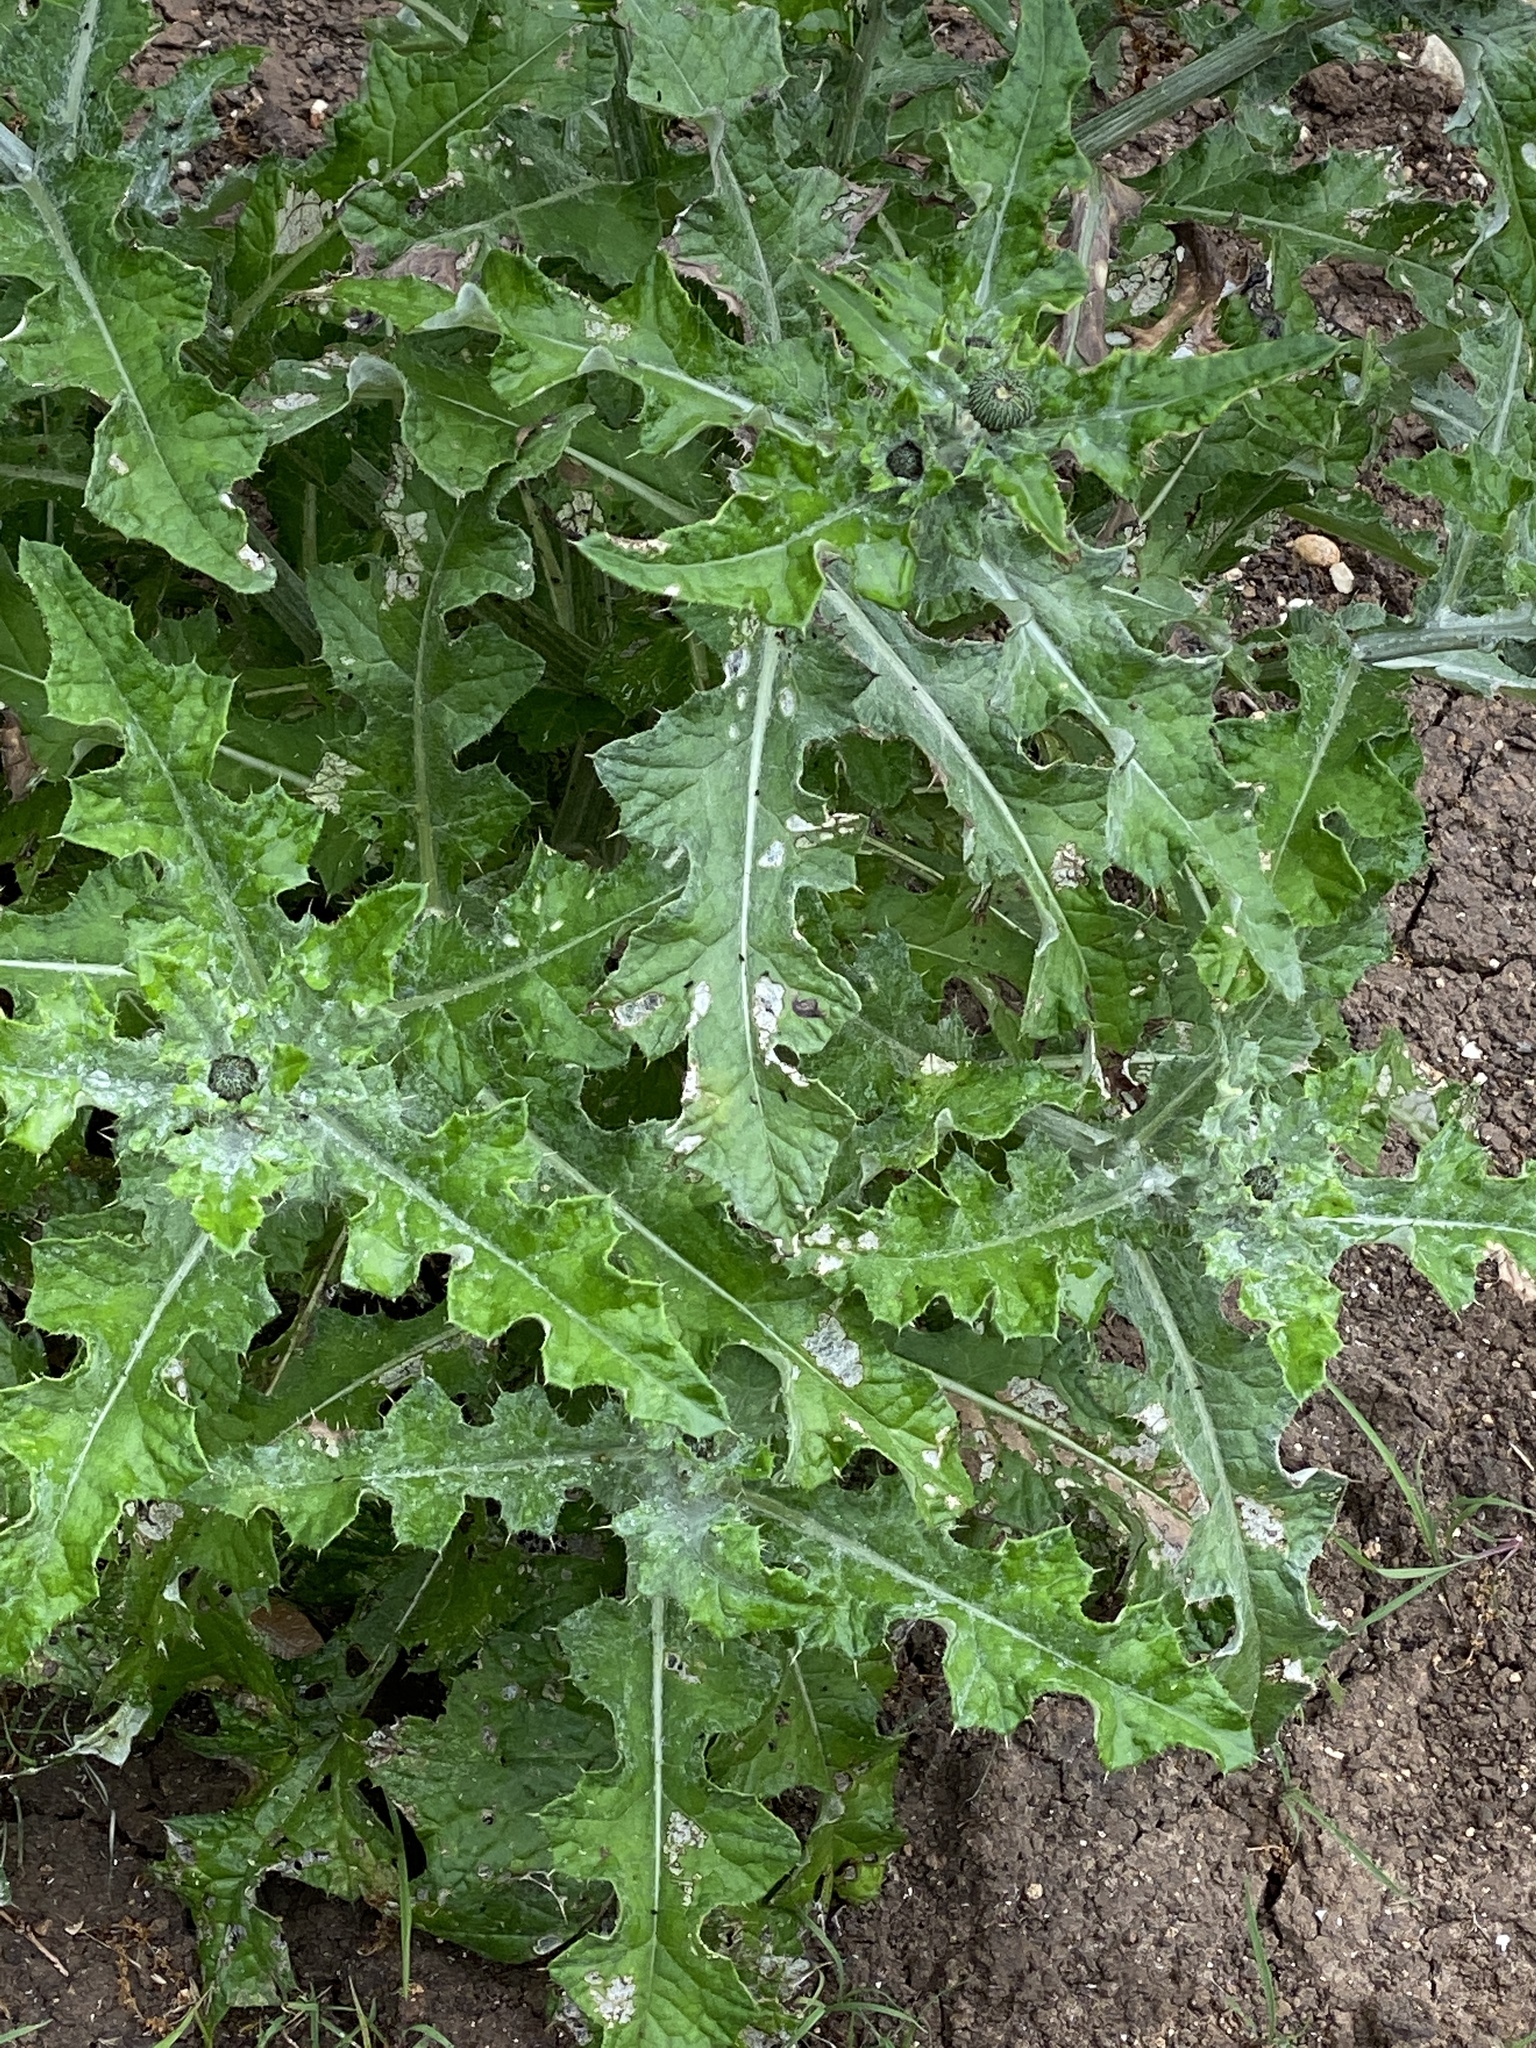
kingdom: Plantae
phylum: Tracheophyta
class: Magnoliopsida
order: Asterales
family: Asteraceae
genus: Cirsium
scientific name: Cirsium texanum
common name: Texas purple thistle
